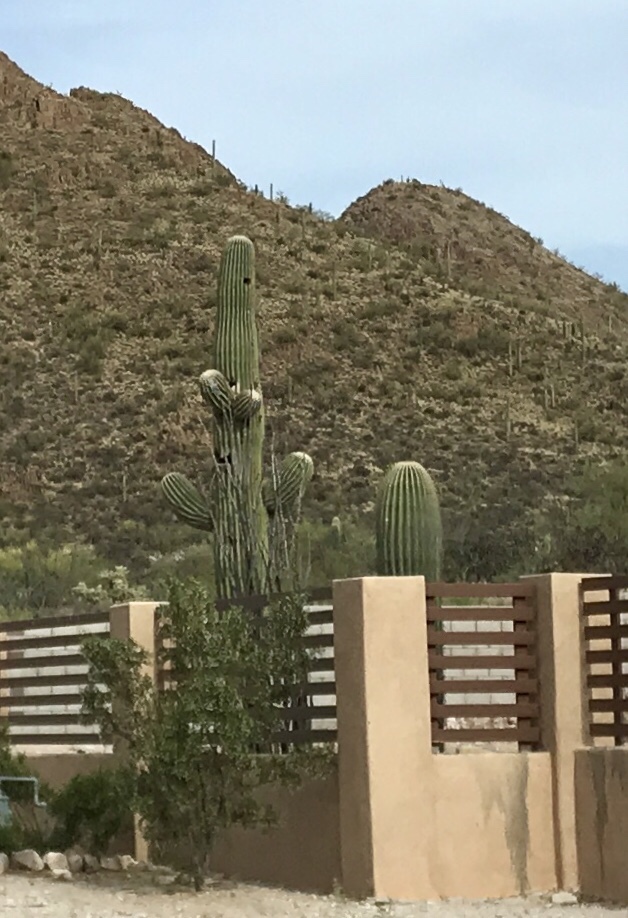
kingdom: Plantae
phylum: Tracheophyta
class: Magnoliopsida
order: Caryophyllales
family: Cactaceae
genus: Carnegiea
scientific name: Carnegiea gigantea
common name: Saguaro
